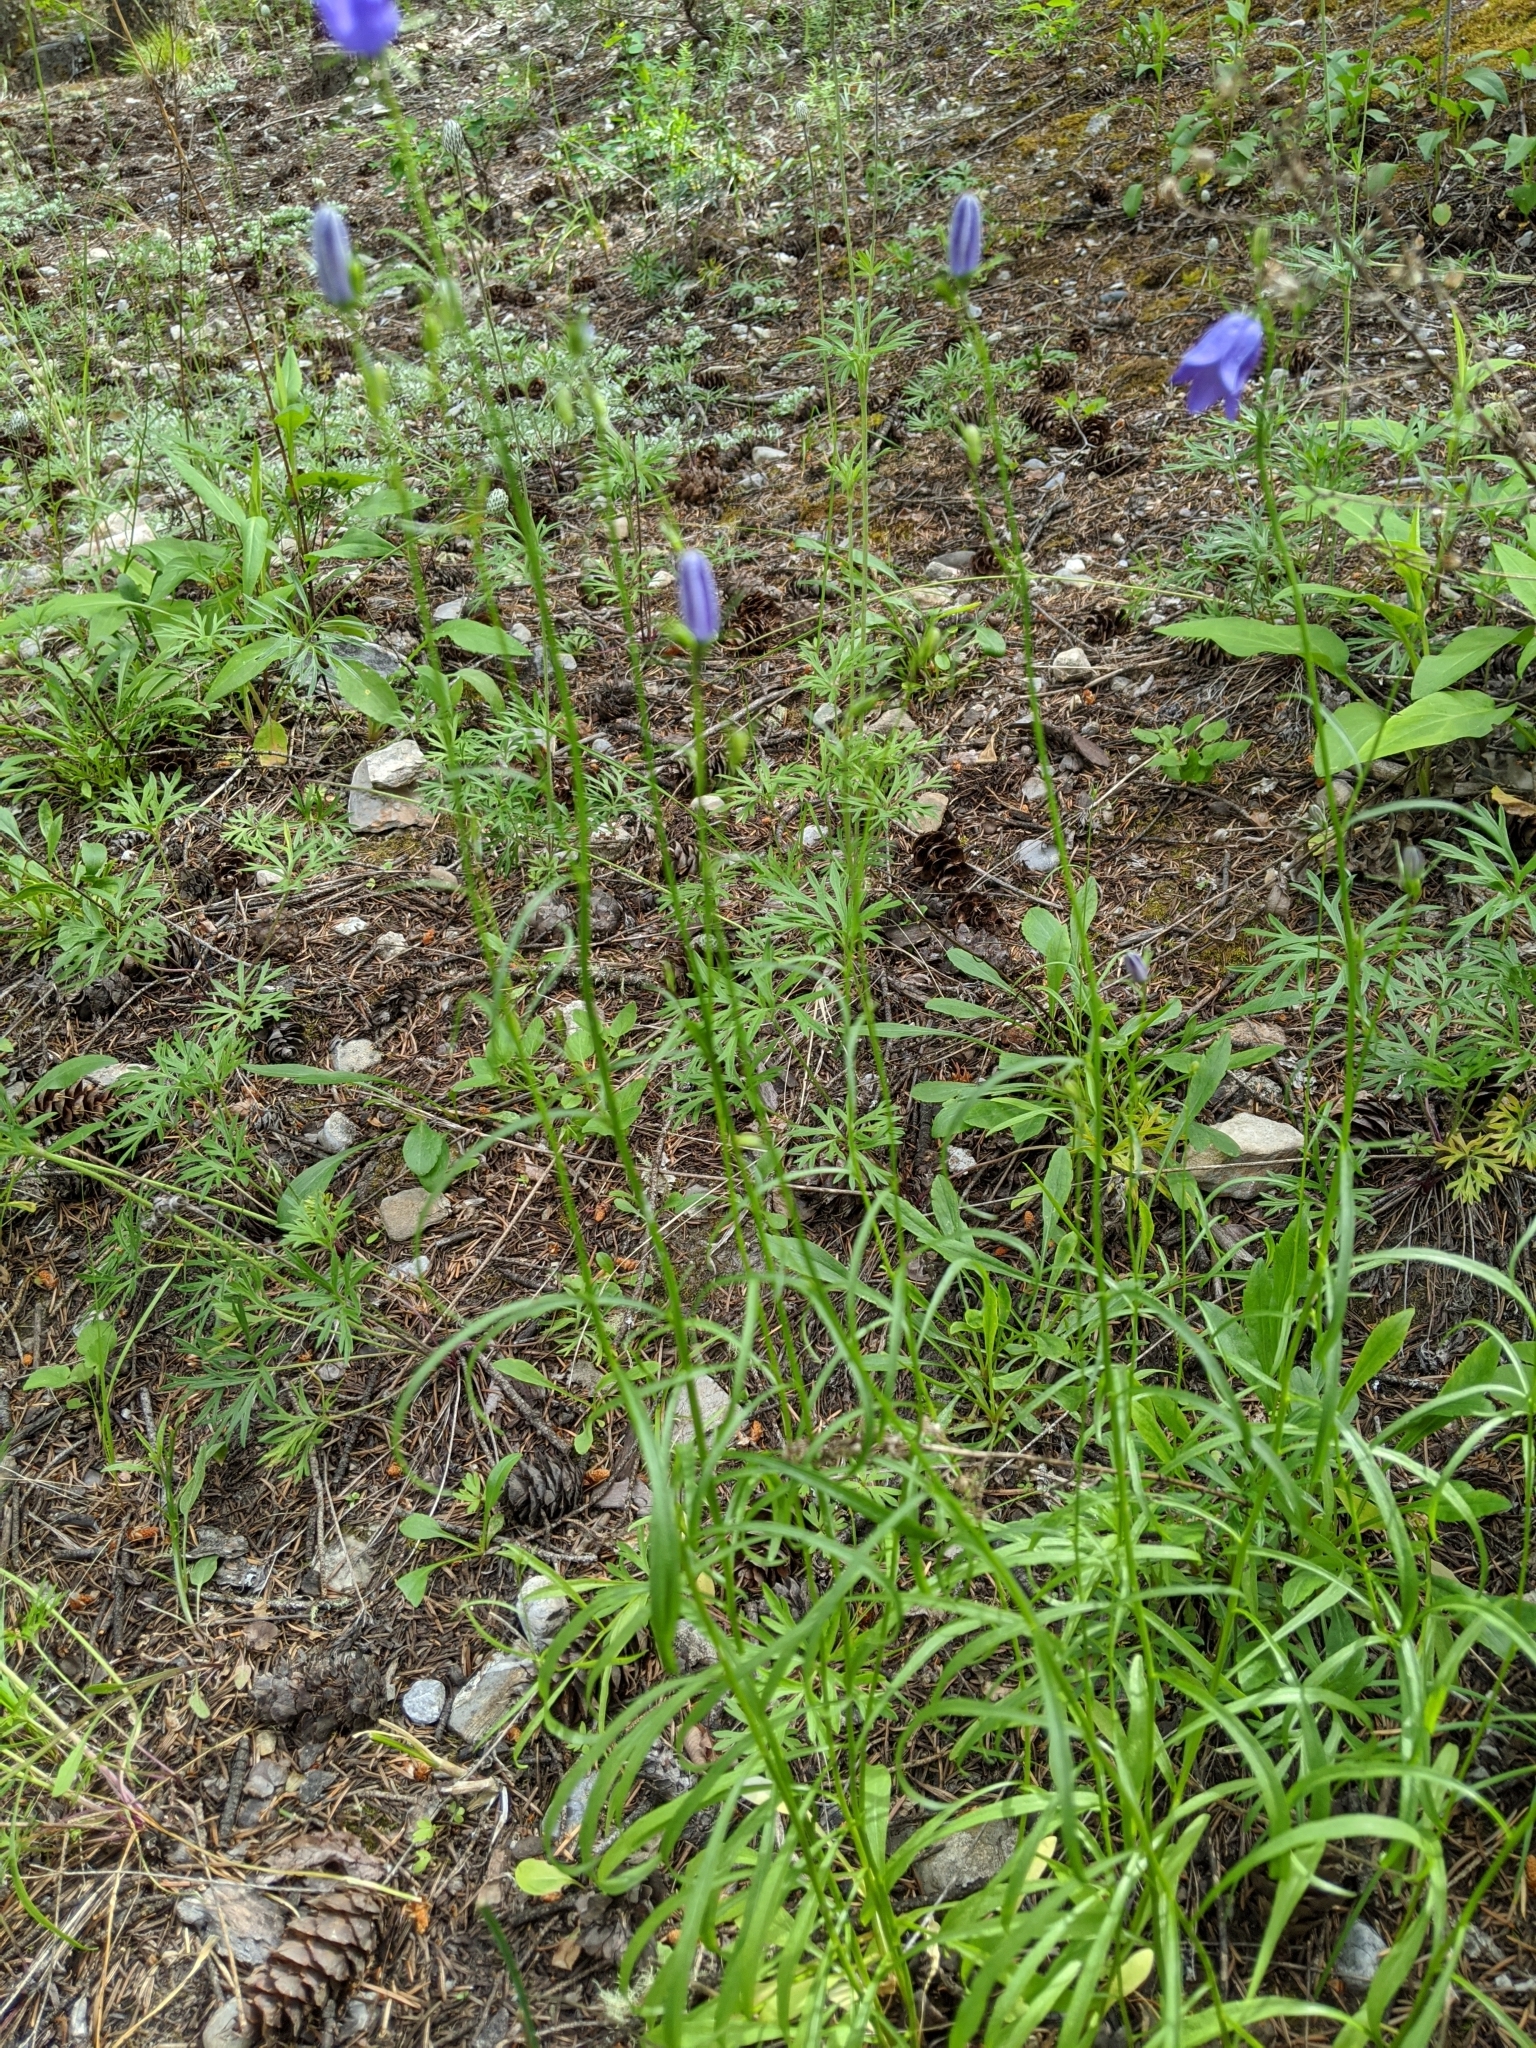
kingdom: Plantae
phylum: Tracheophyta
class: Magnoliopsida
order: Asterales
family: Campanulaceae
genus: Campanula
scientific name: Campanula alaskana
